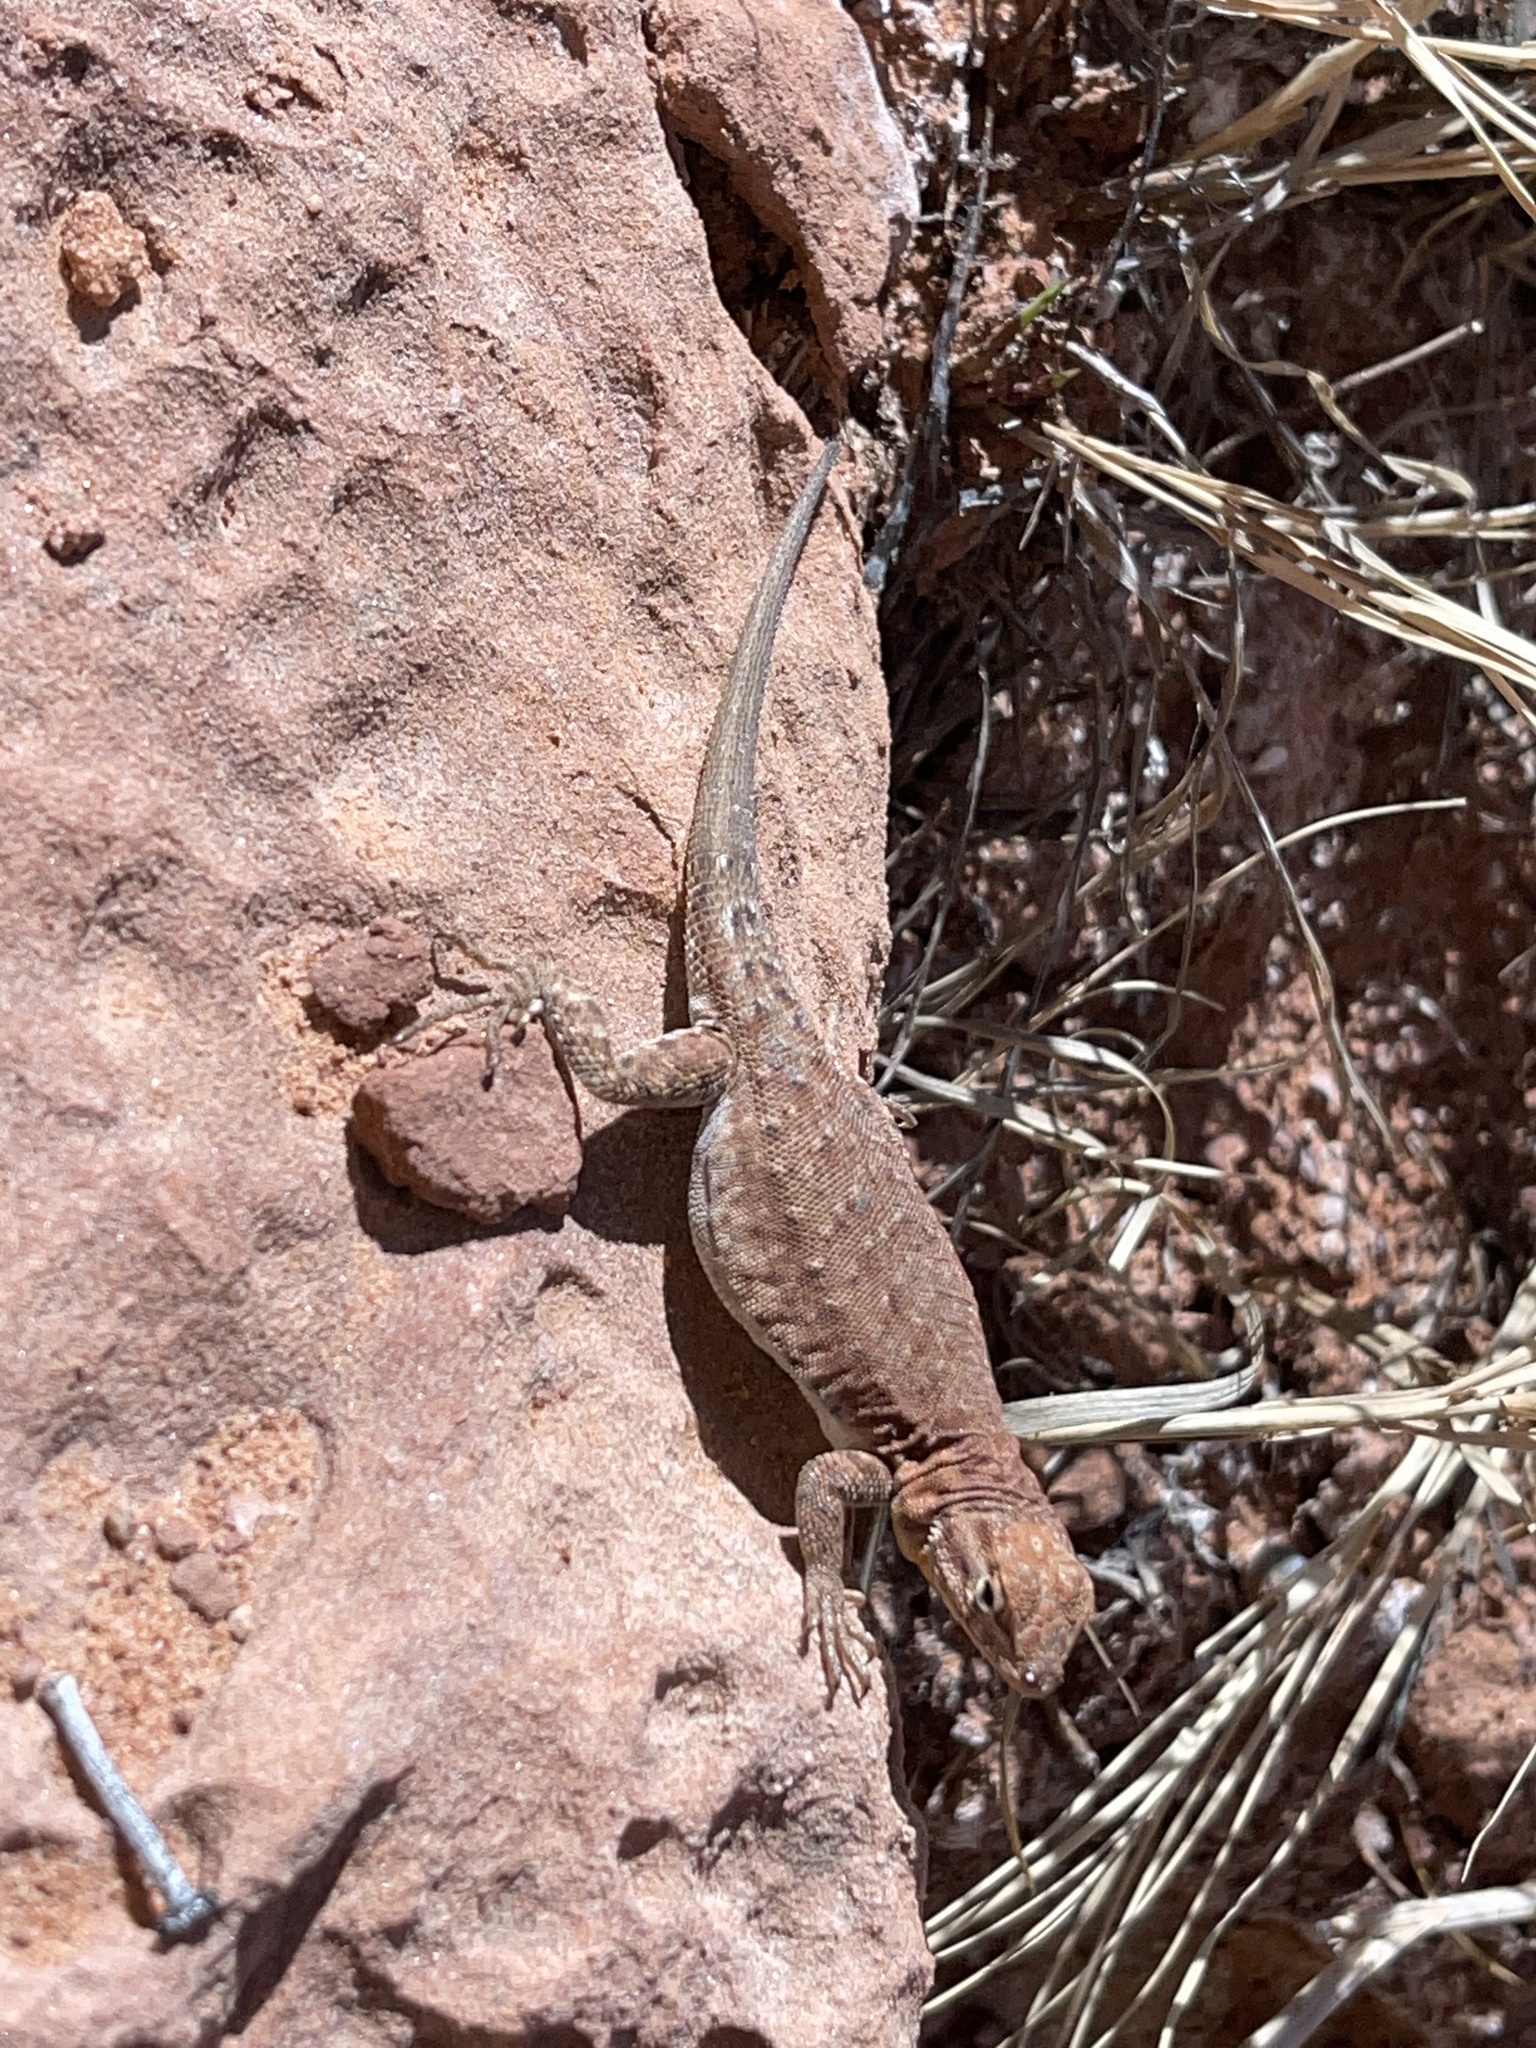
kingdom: Animalia
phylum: Chordata
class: Squamata
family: Phrynosomatidae
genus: Uta
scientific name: Uta stansburiana
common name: Side-blotched lizard
